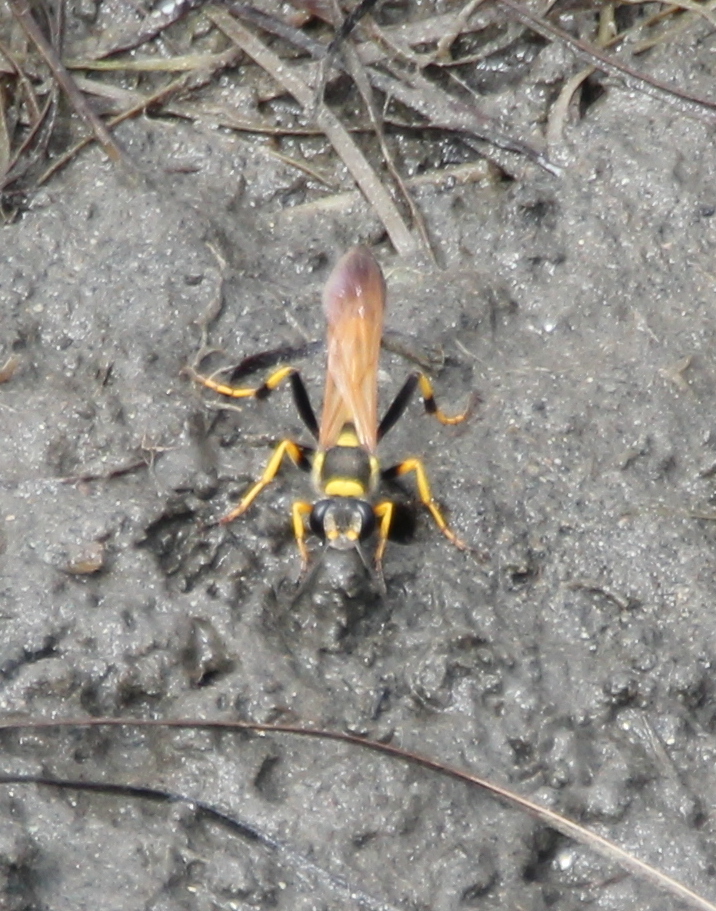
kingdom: Animalia
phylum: Arthropoda
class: Insecta
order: Hymenoptera
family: Sphecidae
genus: Sceliphron
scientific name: Sceliphron caementarium
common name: Mud dauber
